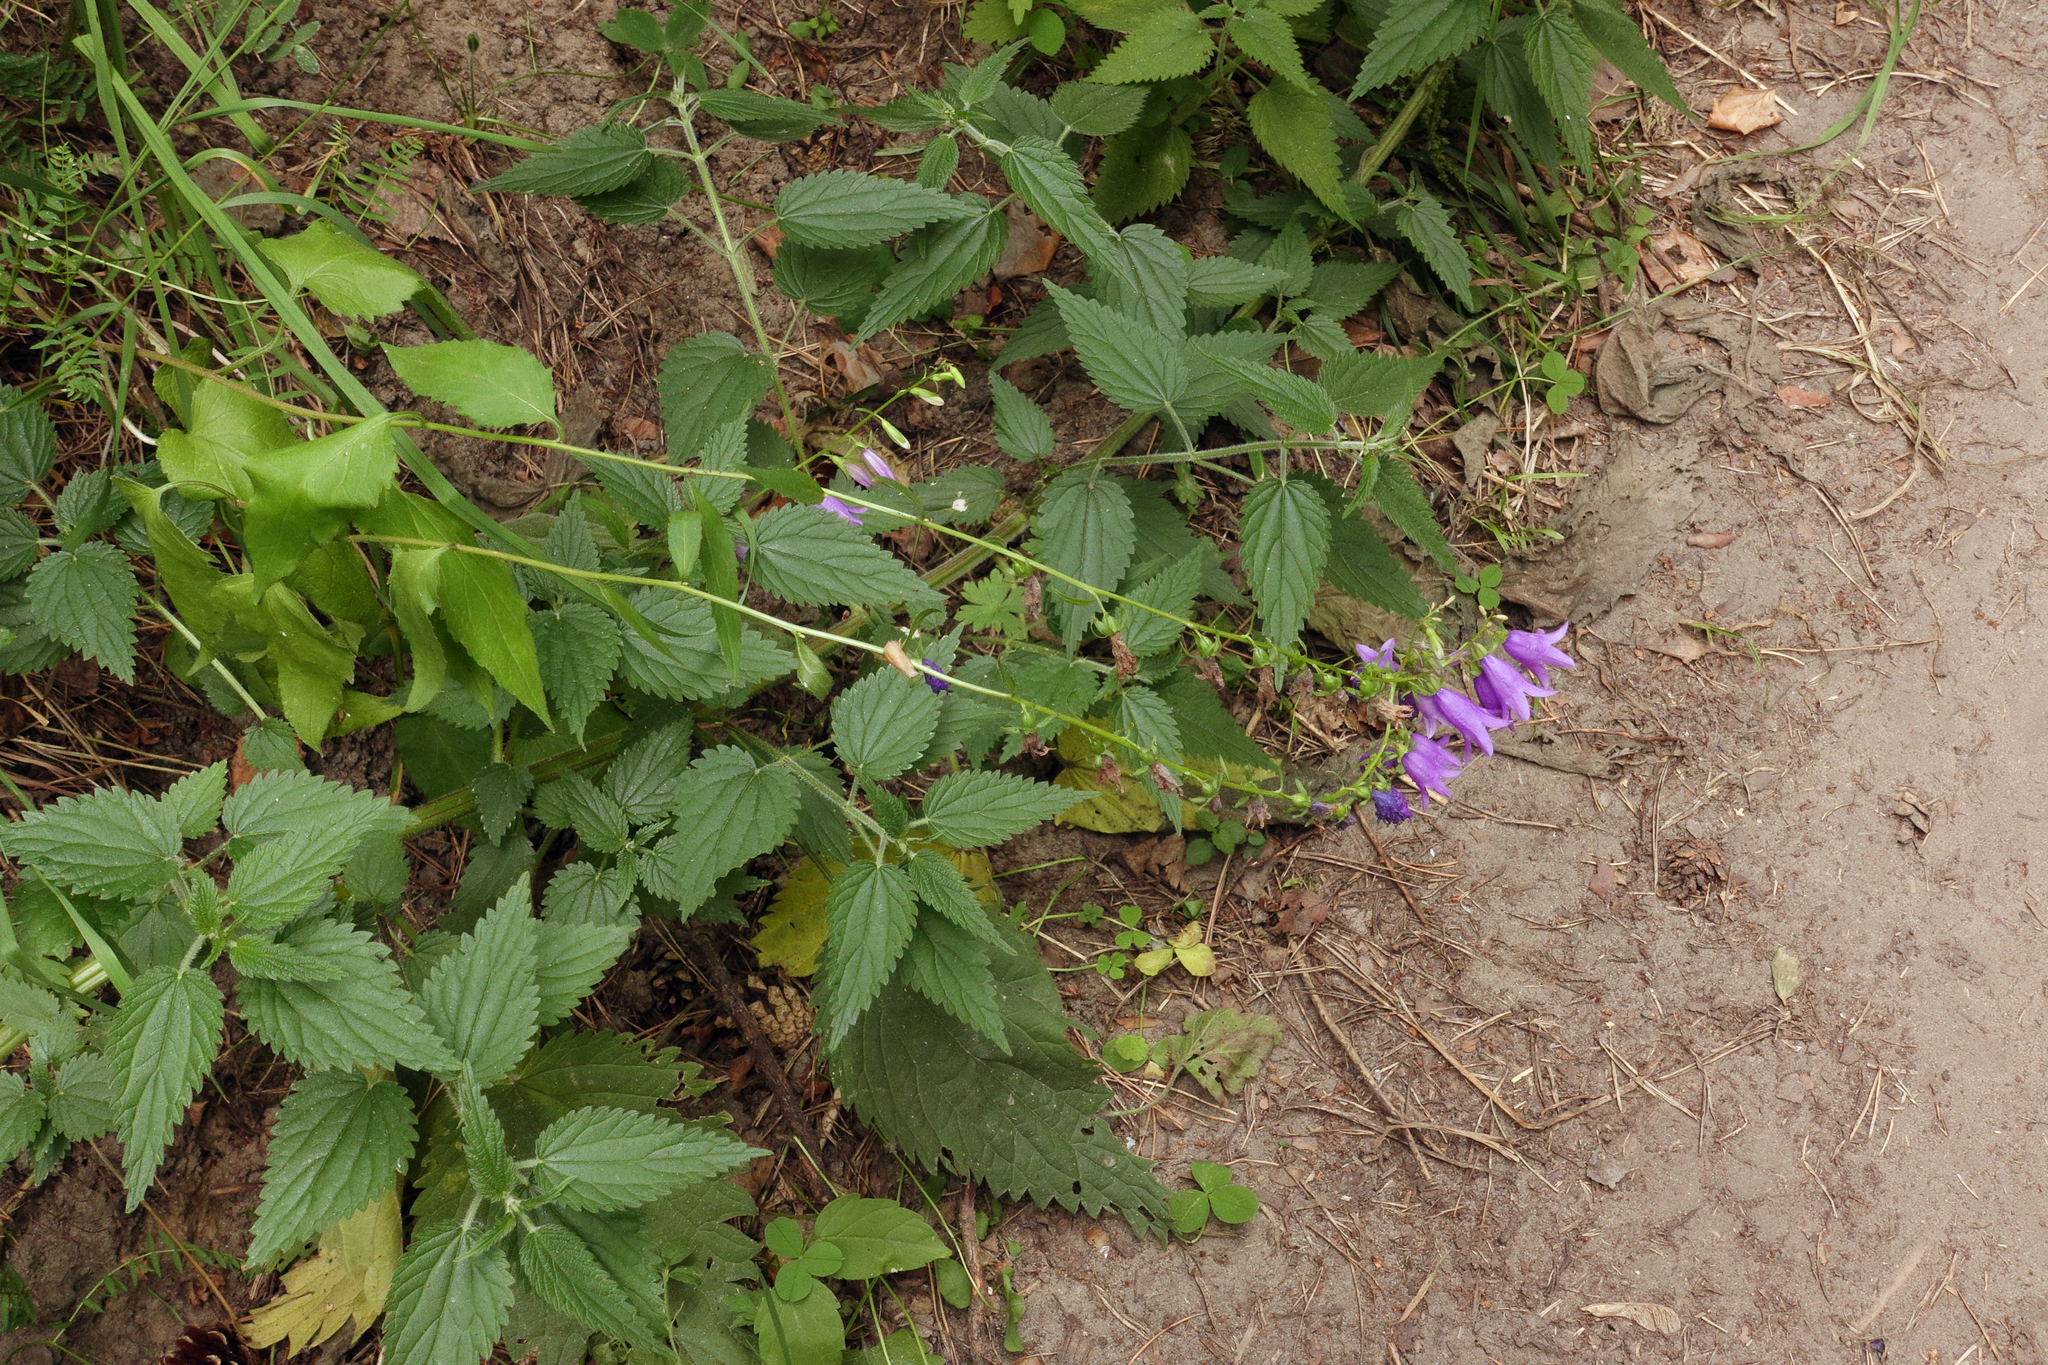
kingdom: Plantae
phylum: Tracheophyta
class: Magnoliopsida
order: Asterales
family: Campanulaceae
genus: Campanula
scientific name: Campanula rapunculoides
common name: Creeping bellflower
